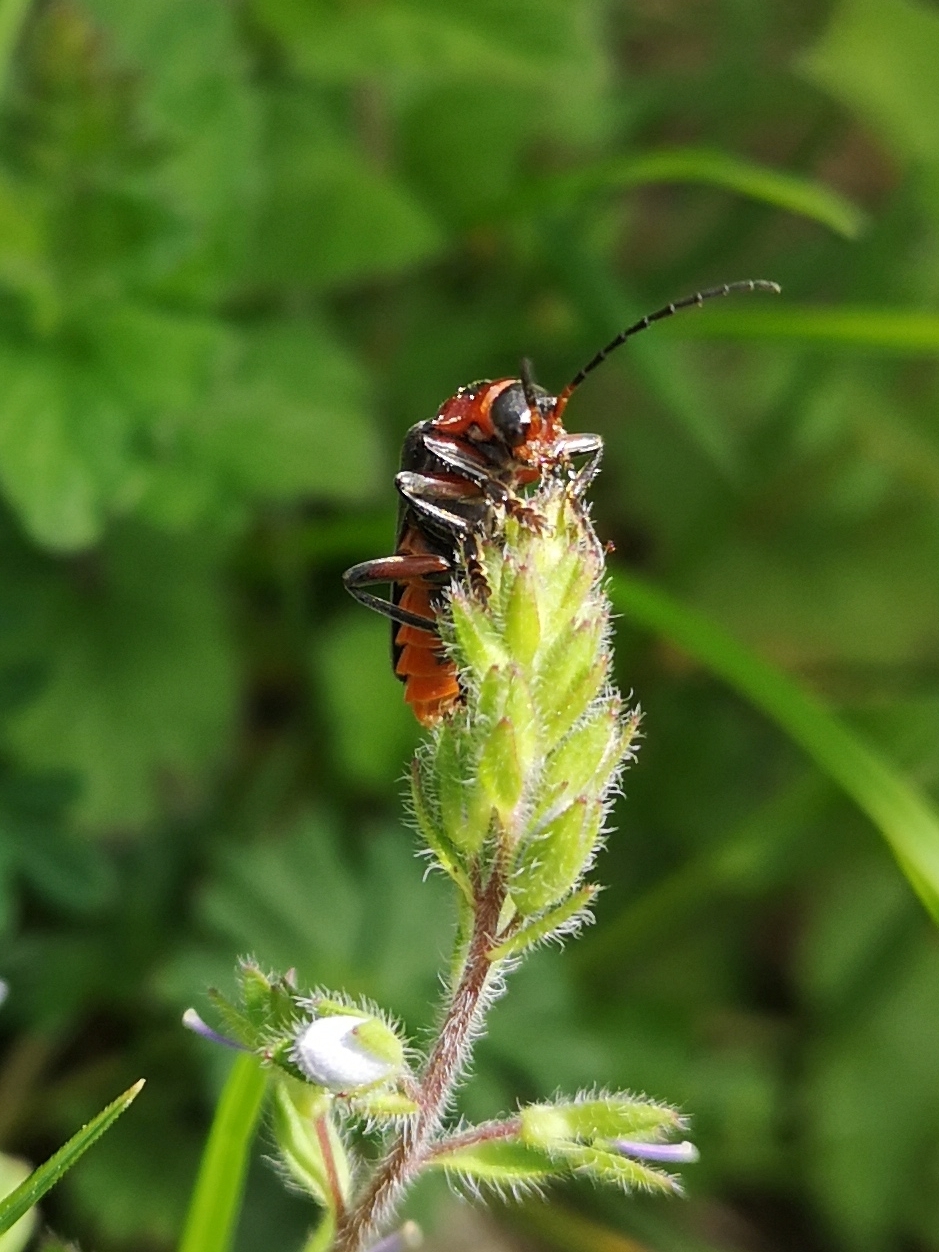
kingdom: Animalia
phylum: Arthropoda
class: Insecta
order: Coleoptera
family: Cantharidae
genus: Cantharis
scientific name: Cantharis rustica
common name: Soldier beetle
